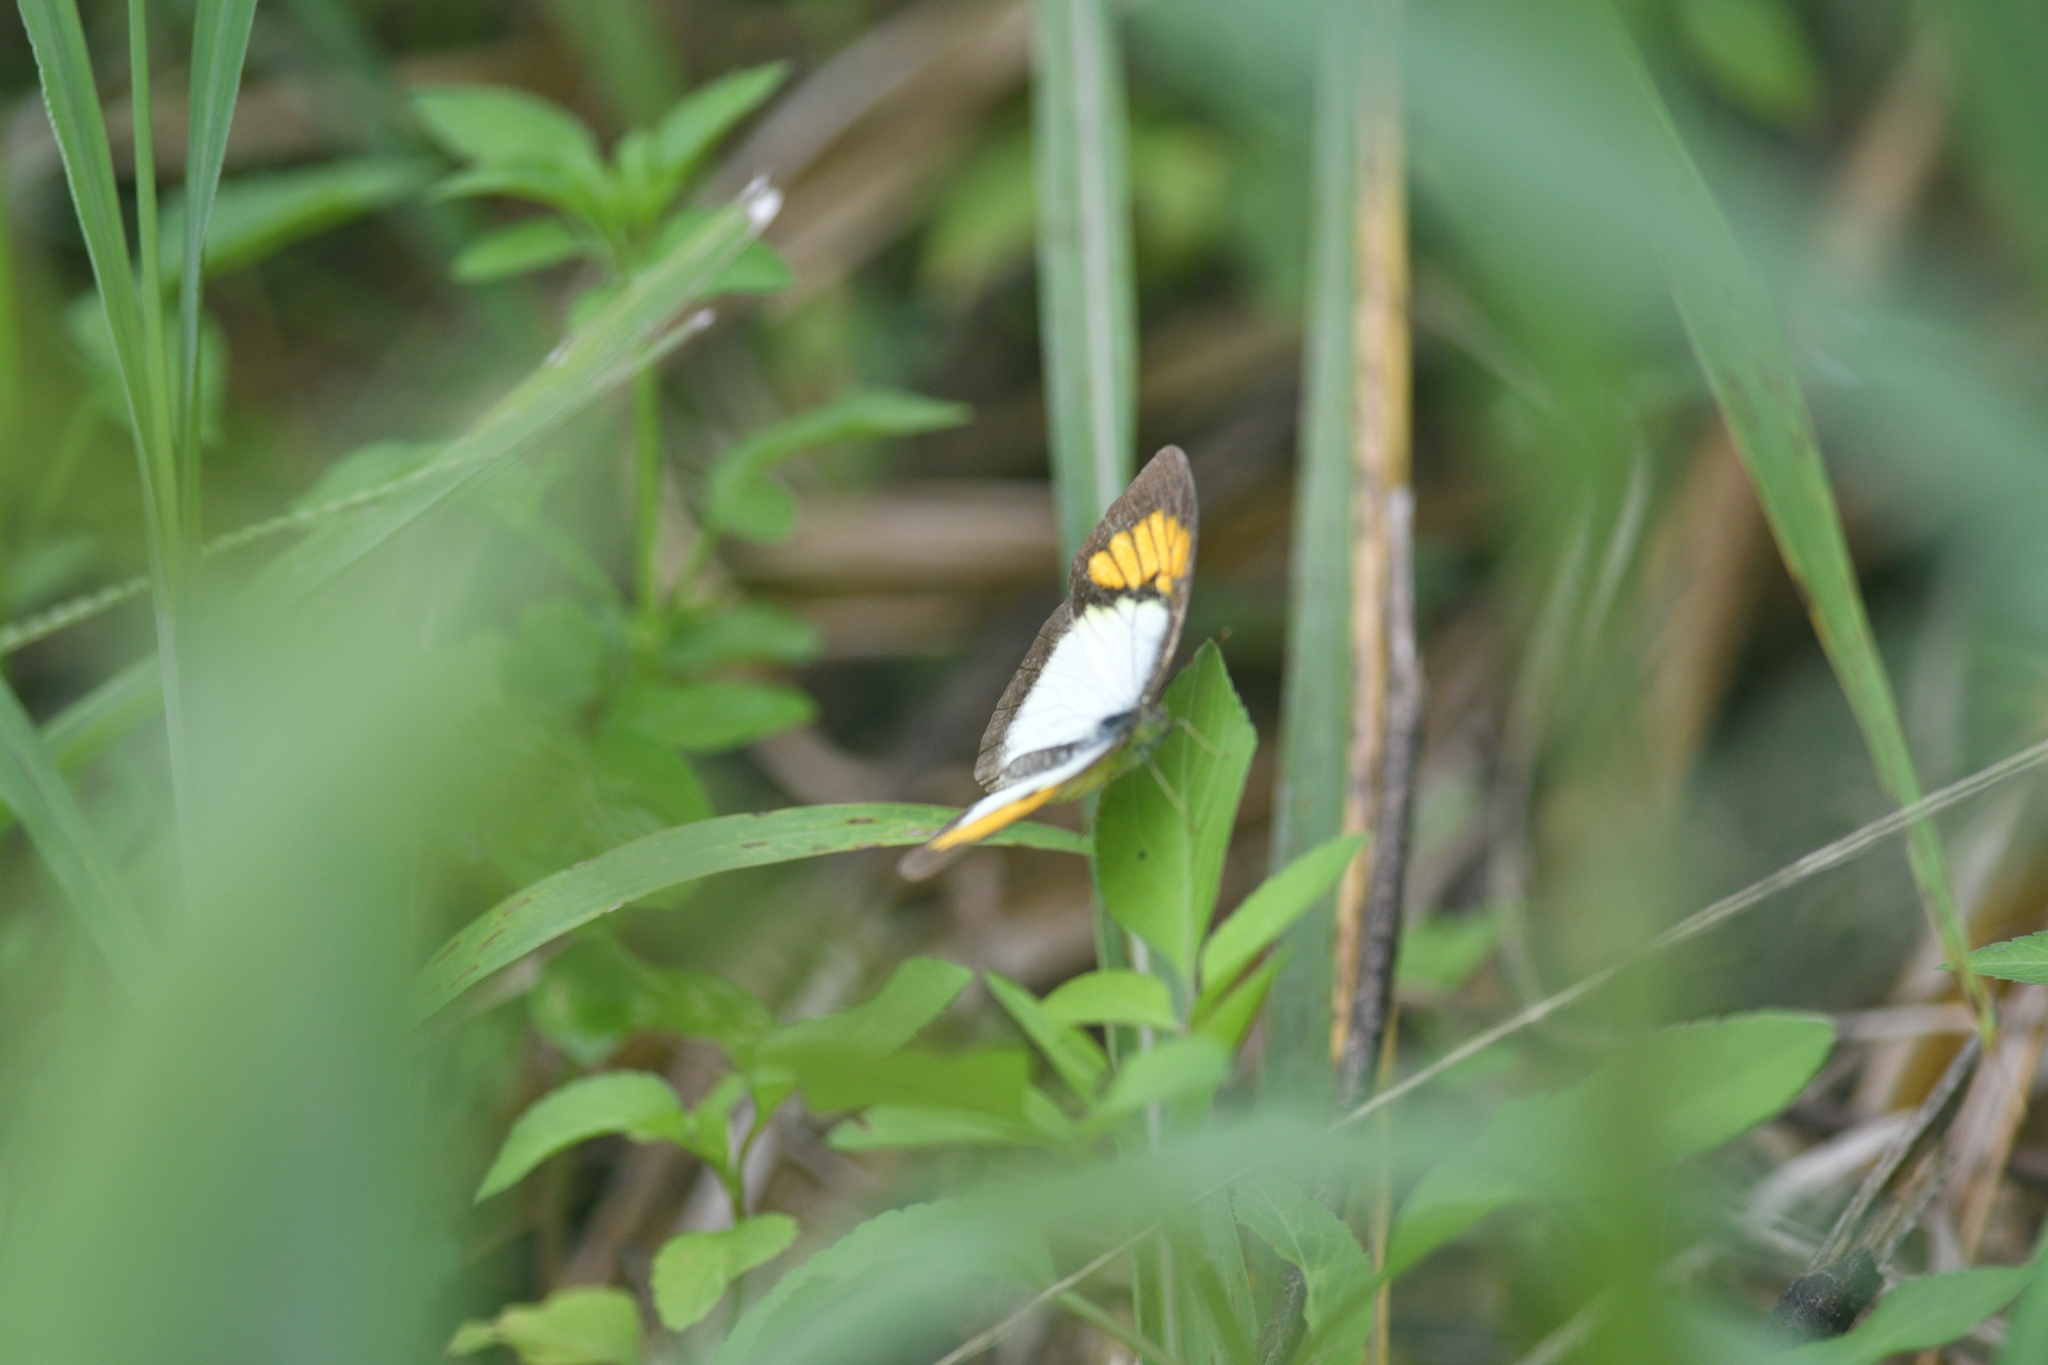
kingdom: Animalia
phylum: Arthropoda
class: Insecta
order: Lepidoptera
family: Pieridae
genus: Ixias
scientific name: Ixias pyrene
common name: Yellow orange tip
